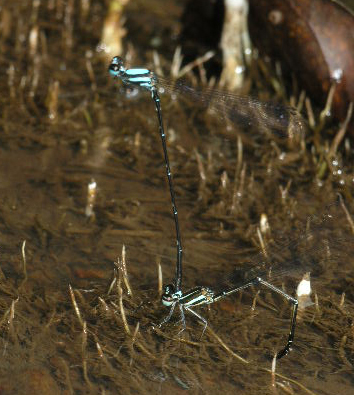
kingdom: Animalia
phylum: Arthropoda
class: Insecta
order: Odonata
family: Platycnemididae
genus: Prodasineura
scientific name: Prodasineura doisuthepensis
